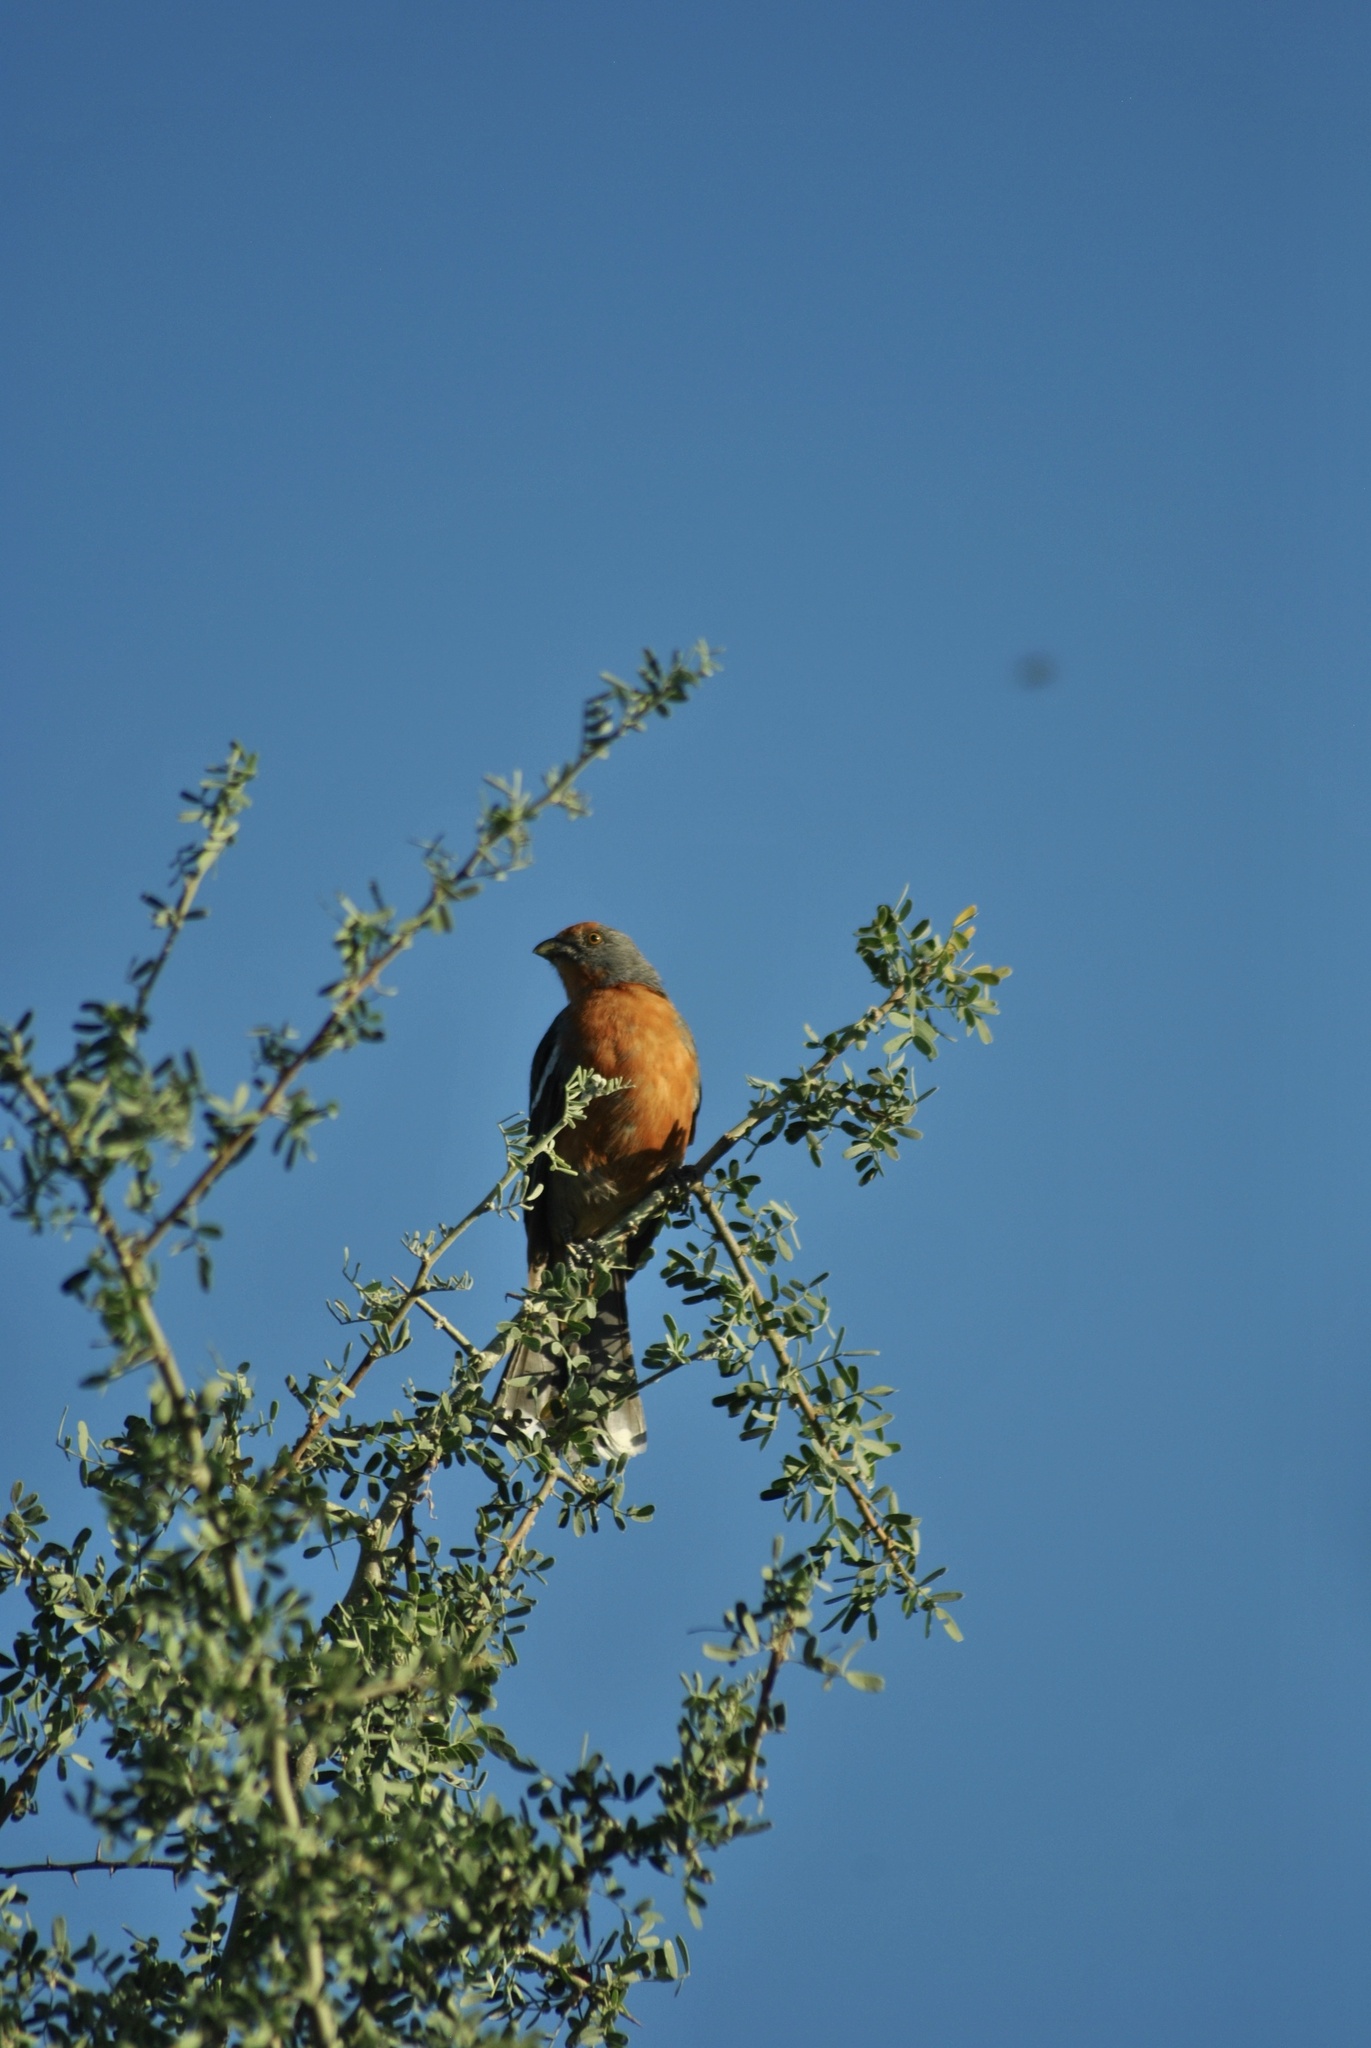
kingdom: Animalia
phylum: Chordata
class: Aves
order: Passeriformes
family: Cotingidae
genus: Phytotoma
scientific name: Phytotoma rutila
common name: White-tipped plantcutter
